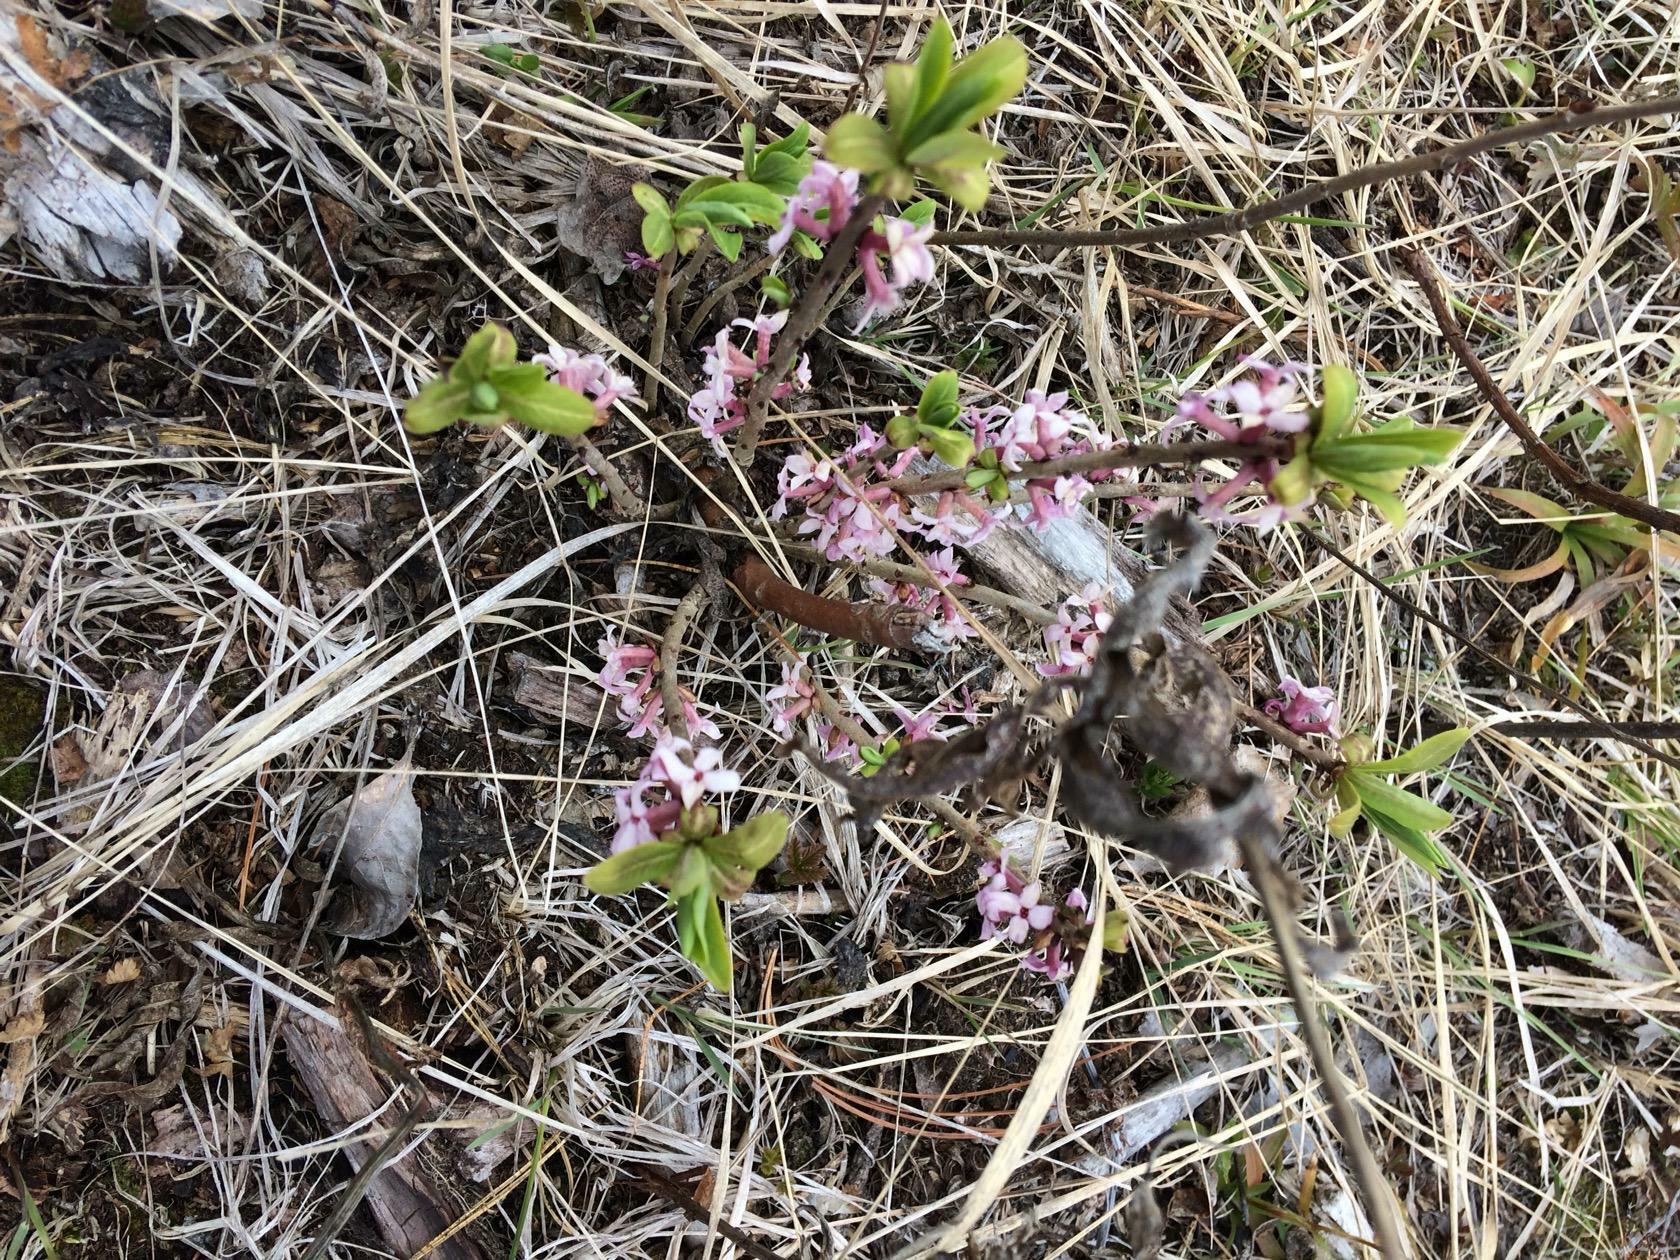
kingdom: Plantae
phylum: Tracheophyta
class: Magnoliopsida
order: Malvales
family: Thymelaeaceae
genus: Daphne
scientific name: Daphne mezereum
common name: Mezereon
